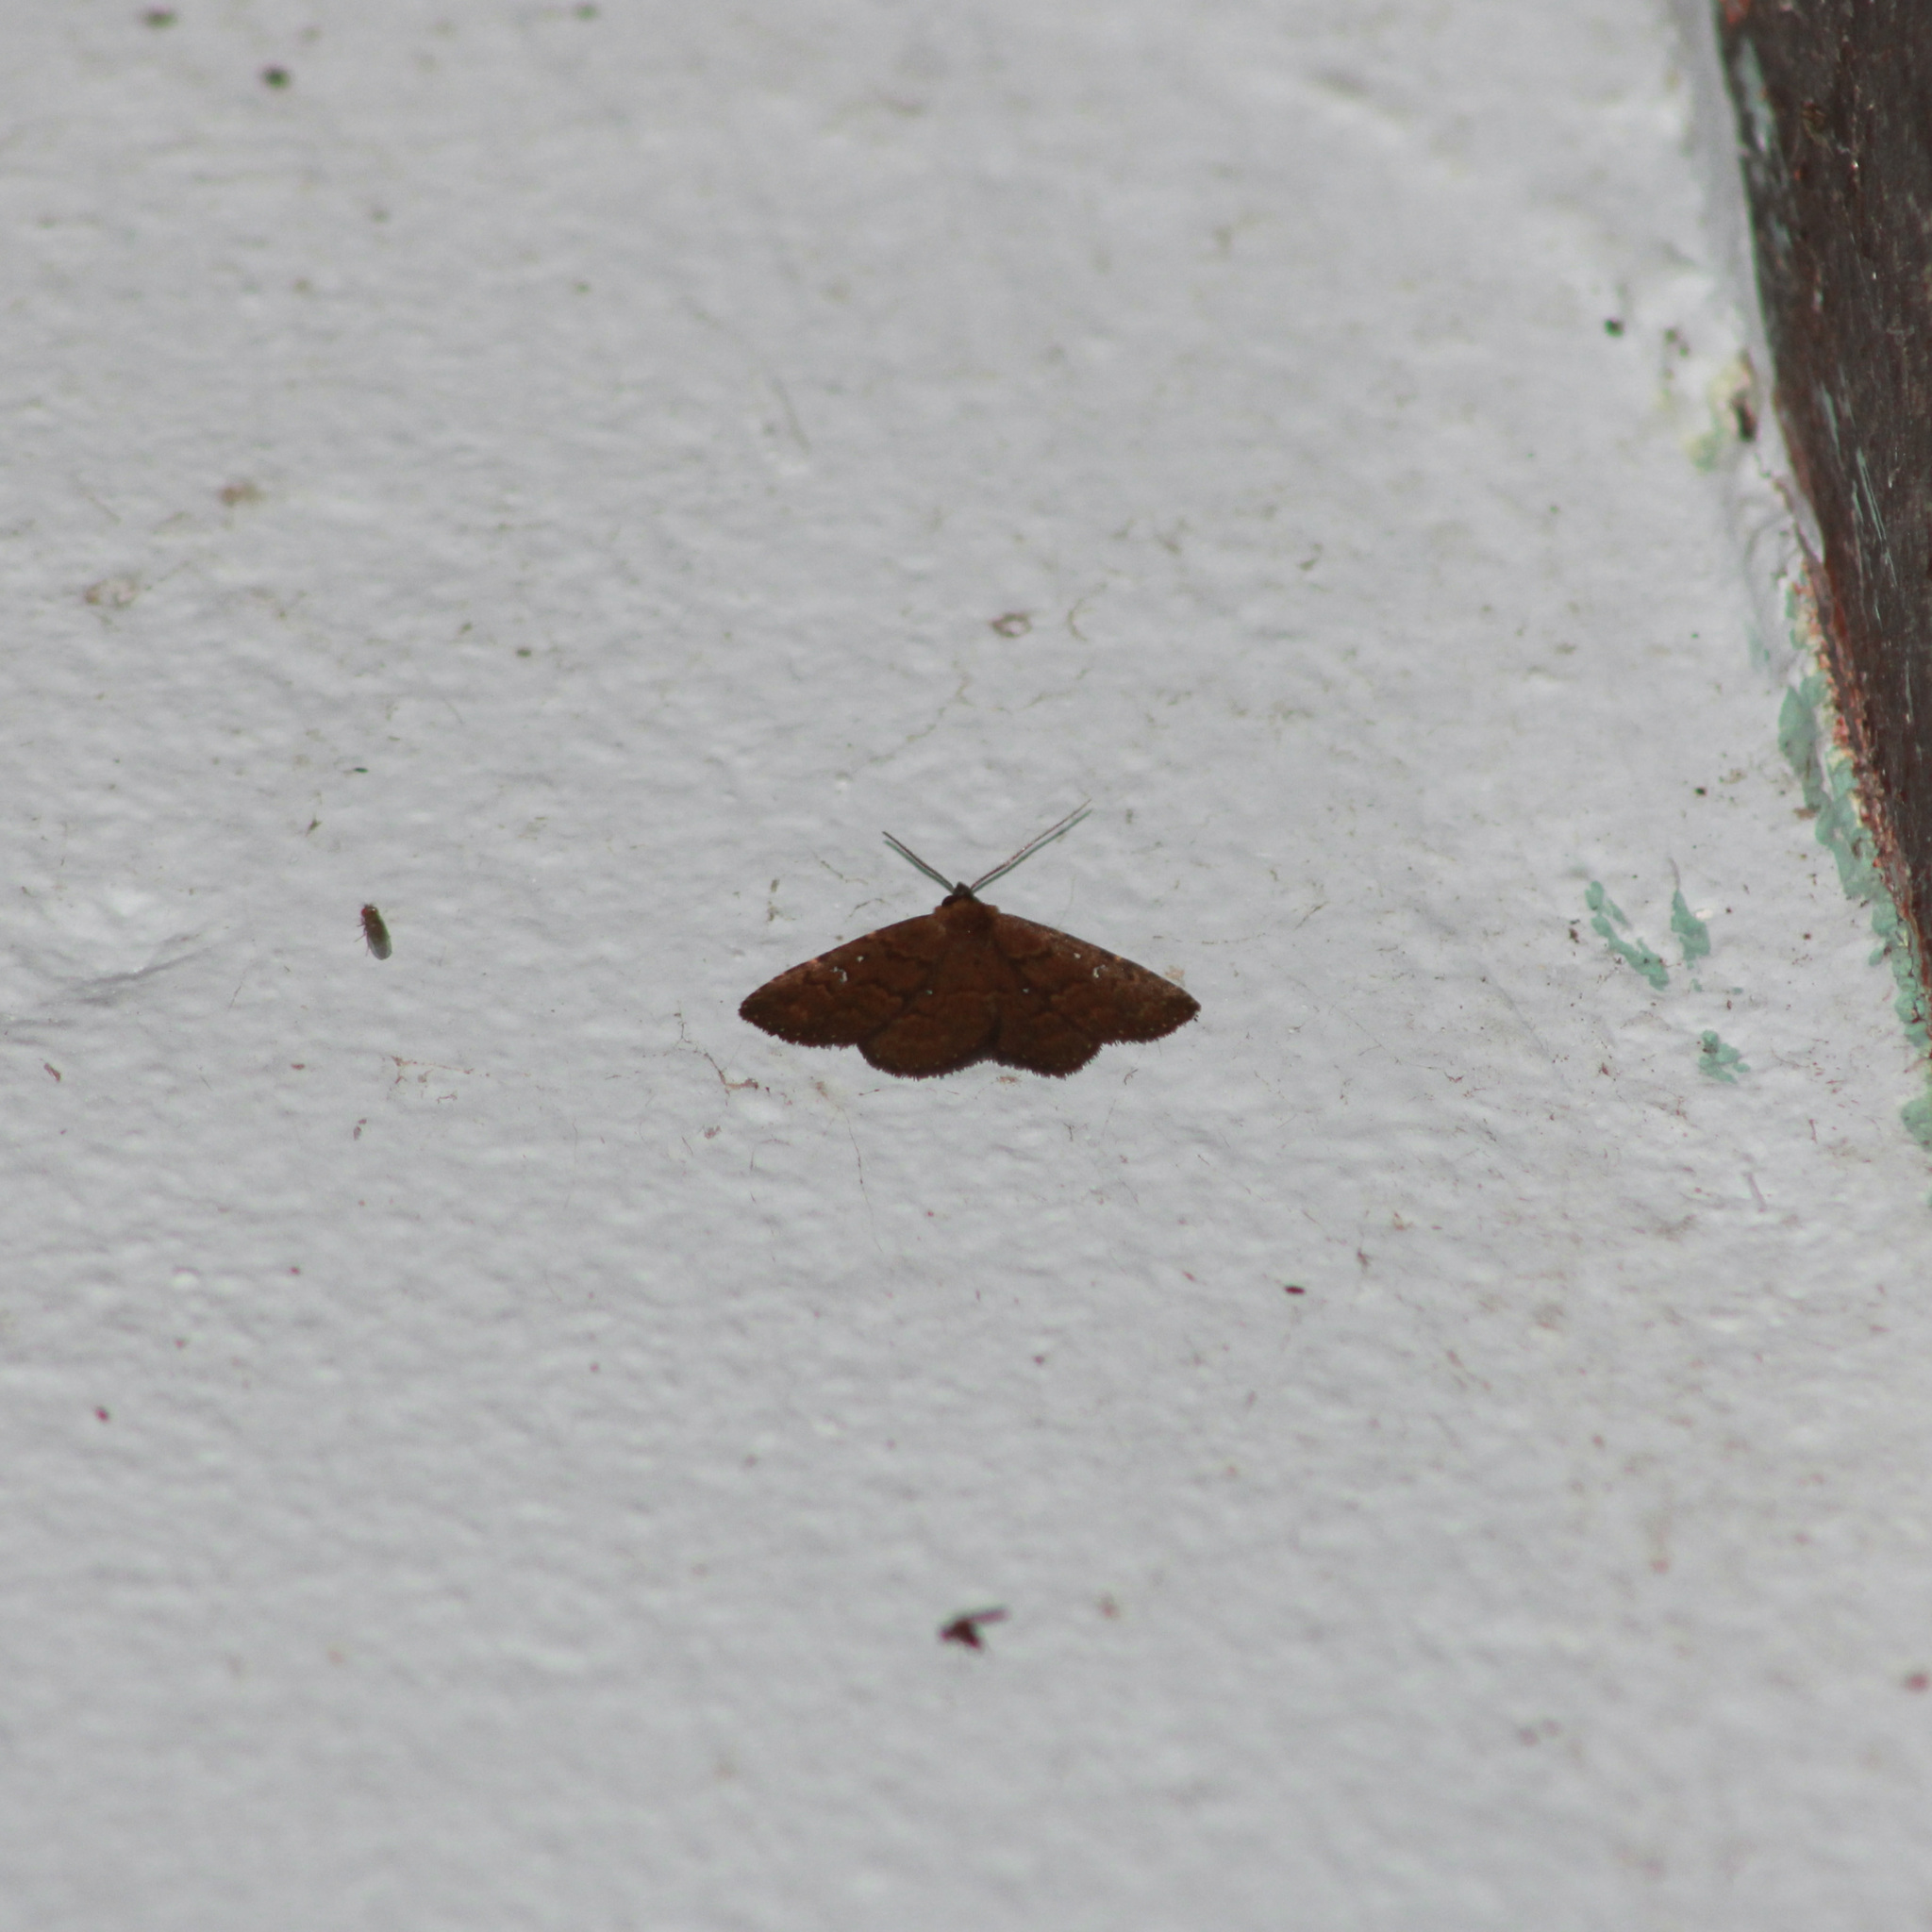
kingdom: Animalia
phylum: Arthropoda
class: Insecta
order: Lepidoptera
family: Erebidae
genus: Ostha
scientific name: Ostha coryphata
